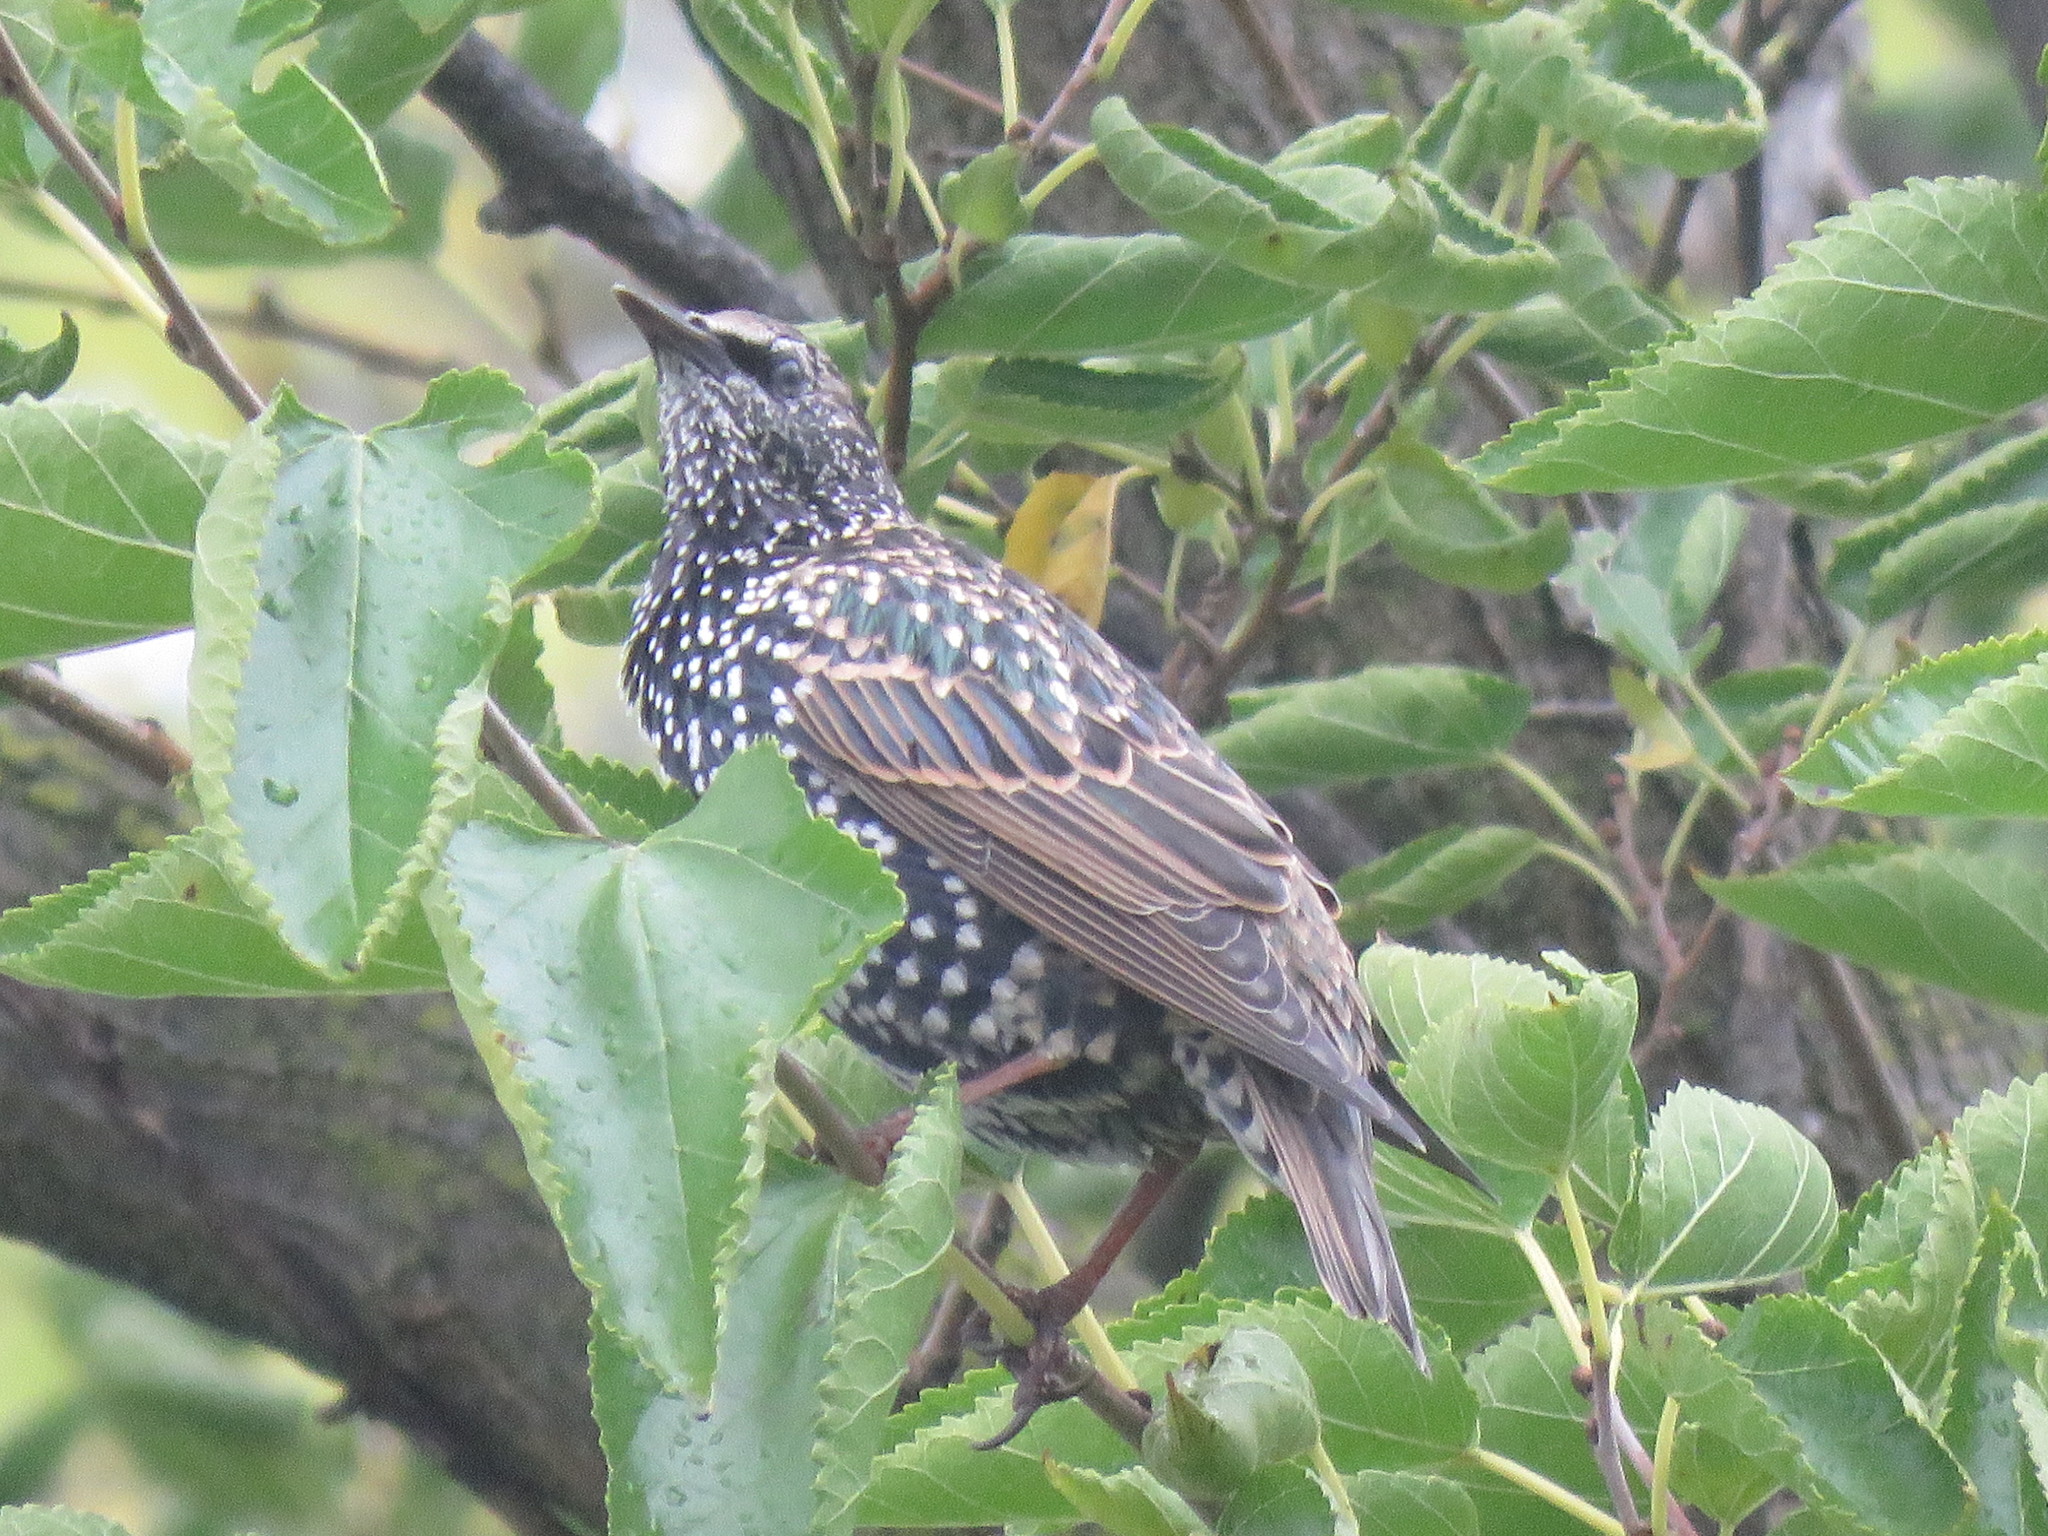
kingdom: Animalia
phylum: Chordata
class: Aves
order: Passeriformes
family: Sturnidae
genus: Sturnus
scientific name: Sturnus vulgaris
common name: Common starling
